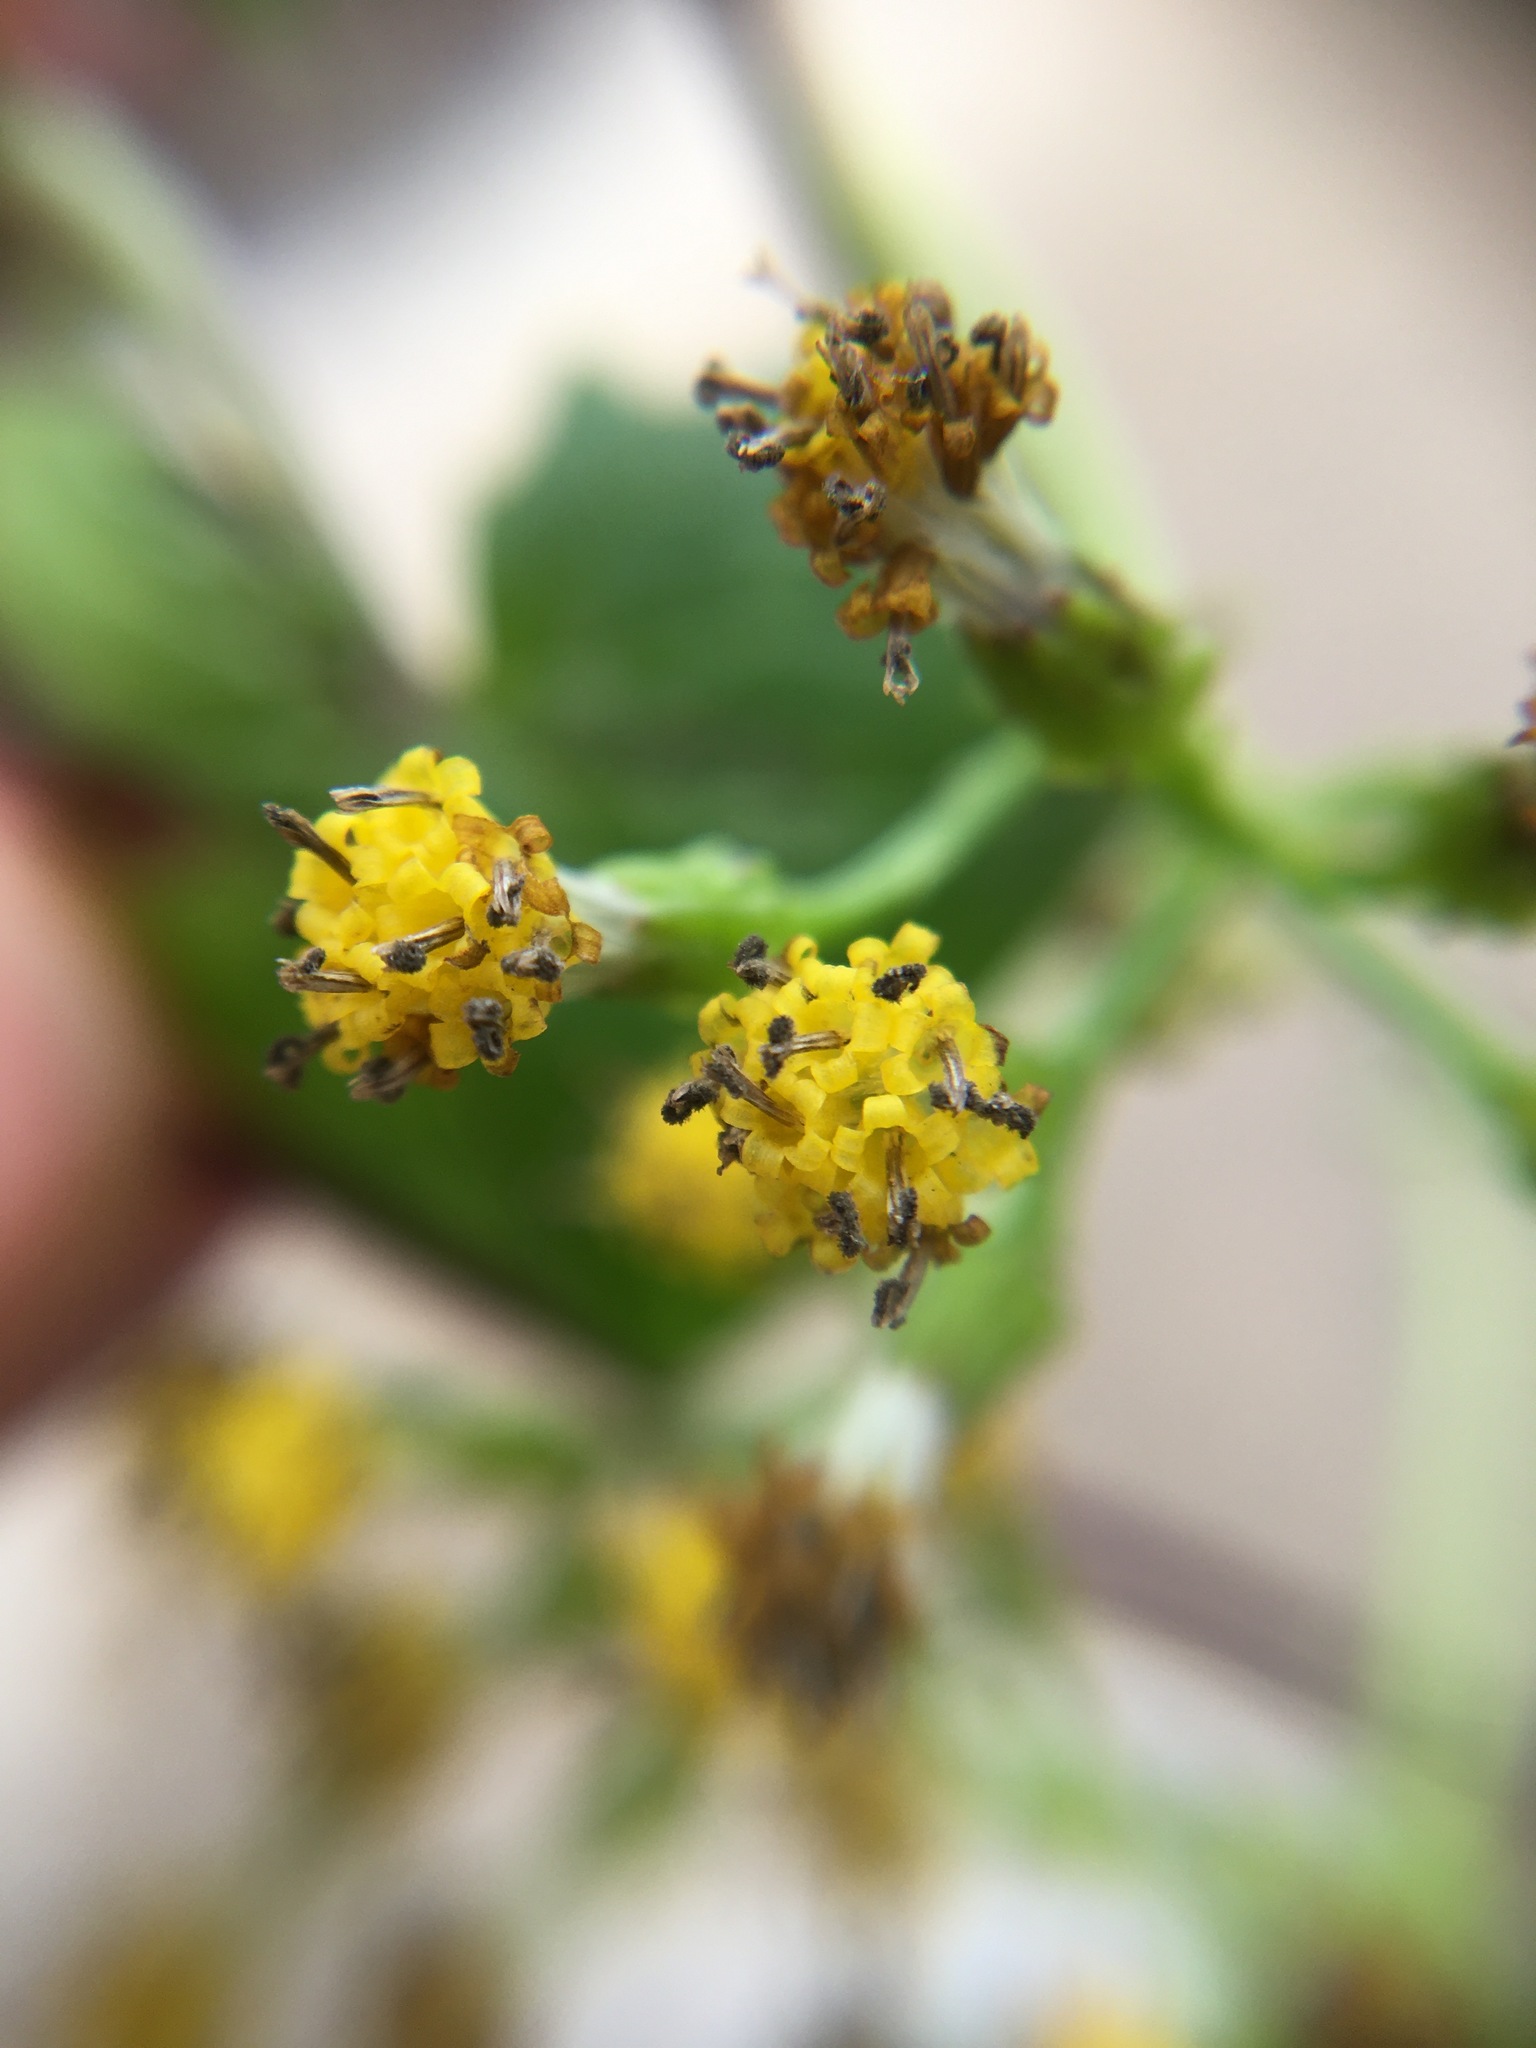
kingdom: Plantae
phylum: Tracheophyta
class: Magnoliopsida
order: Asterales
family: Asteraceae
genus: Delairea
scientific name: Delairea odorata
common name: Cape-ivy
